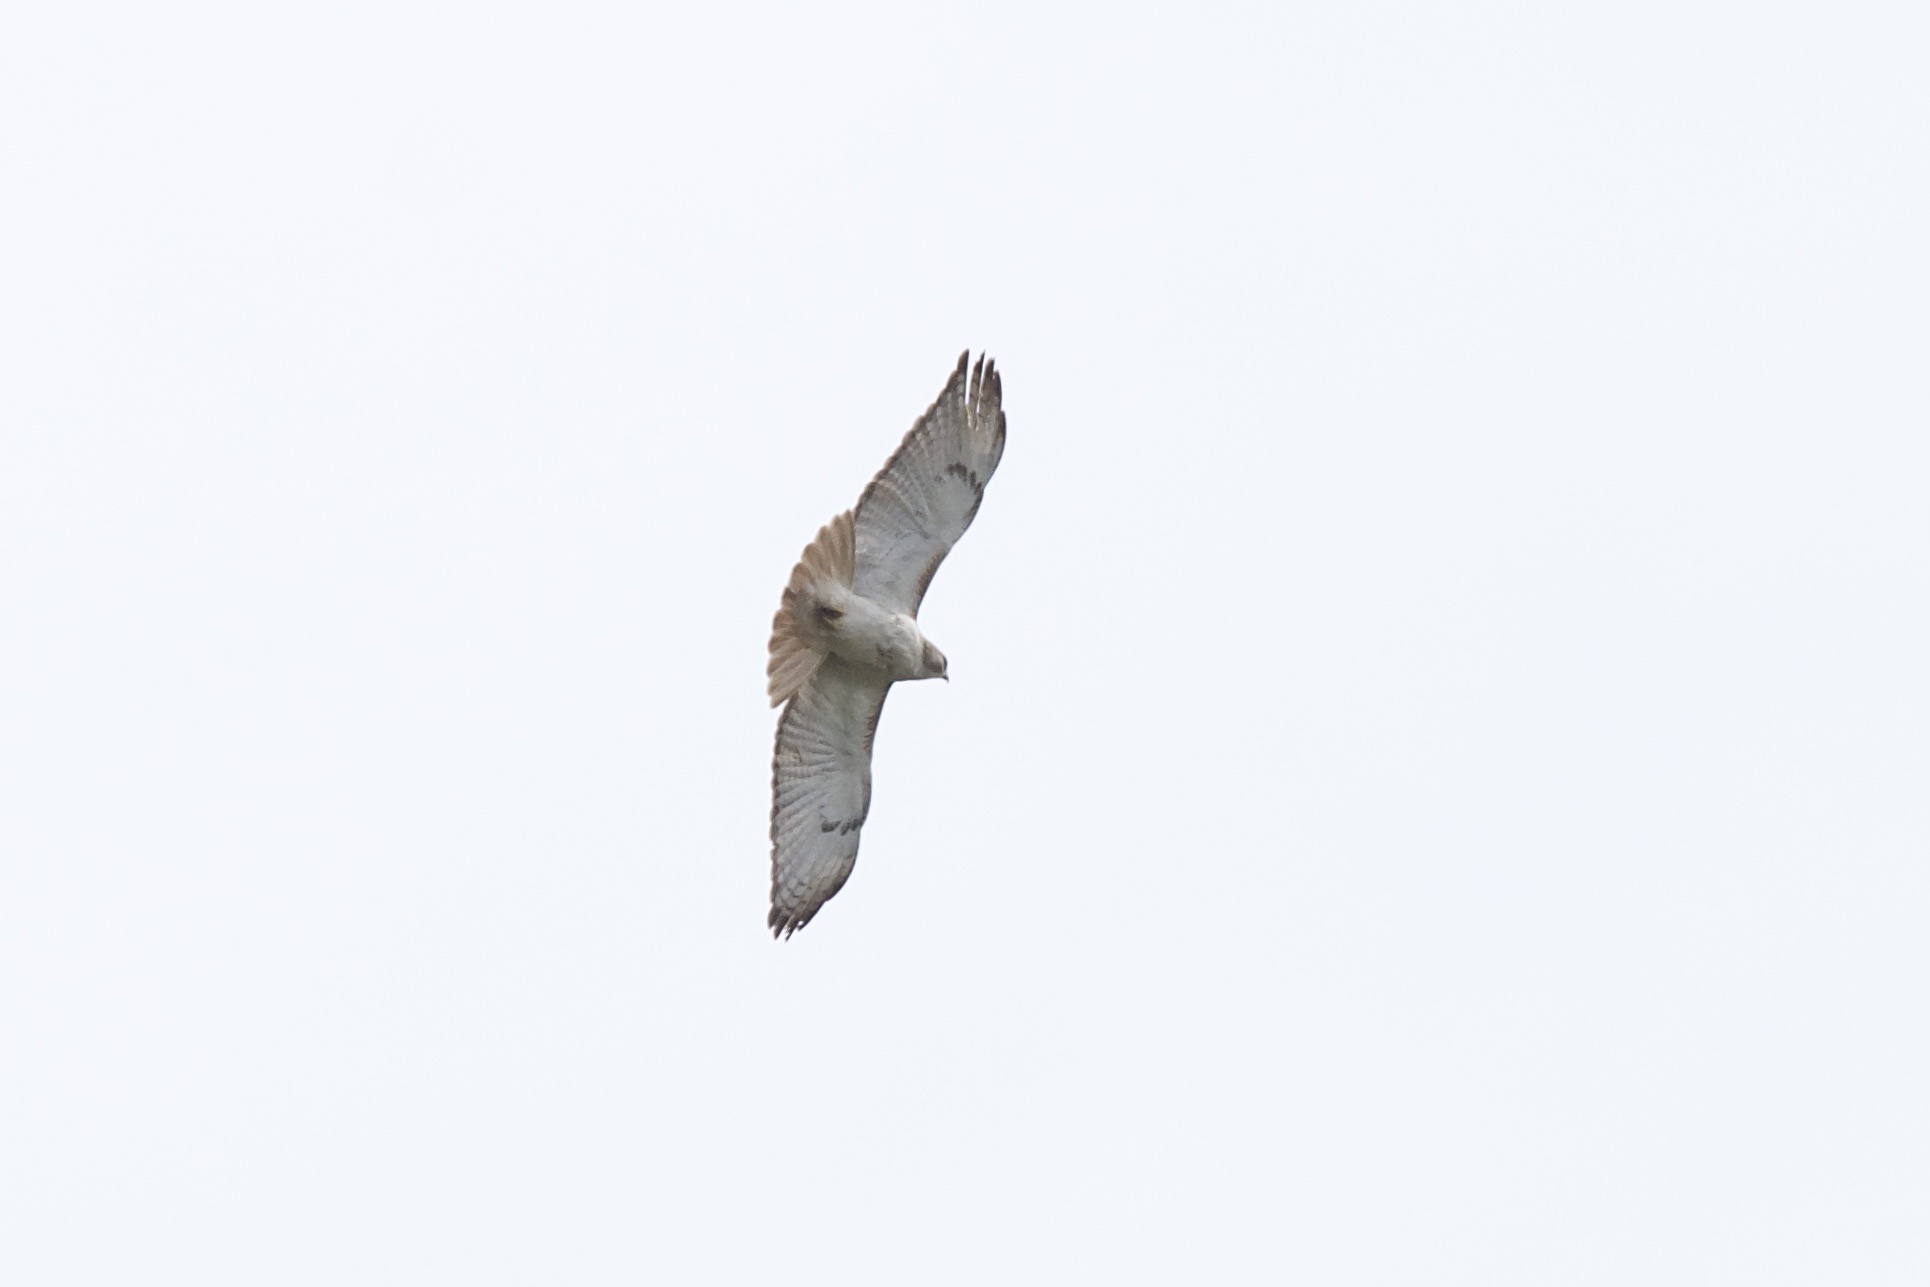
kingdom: Animalia
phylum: Chordata
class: Aves
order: Accipitriformes
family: Accipitridae
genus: Buteo
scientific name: Buteo jamaicensis
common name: Red-tailed hawk
